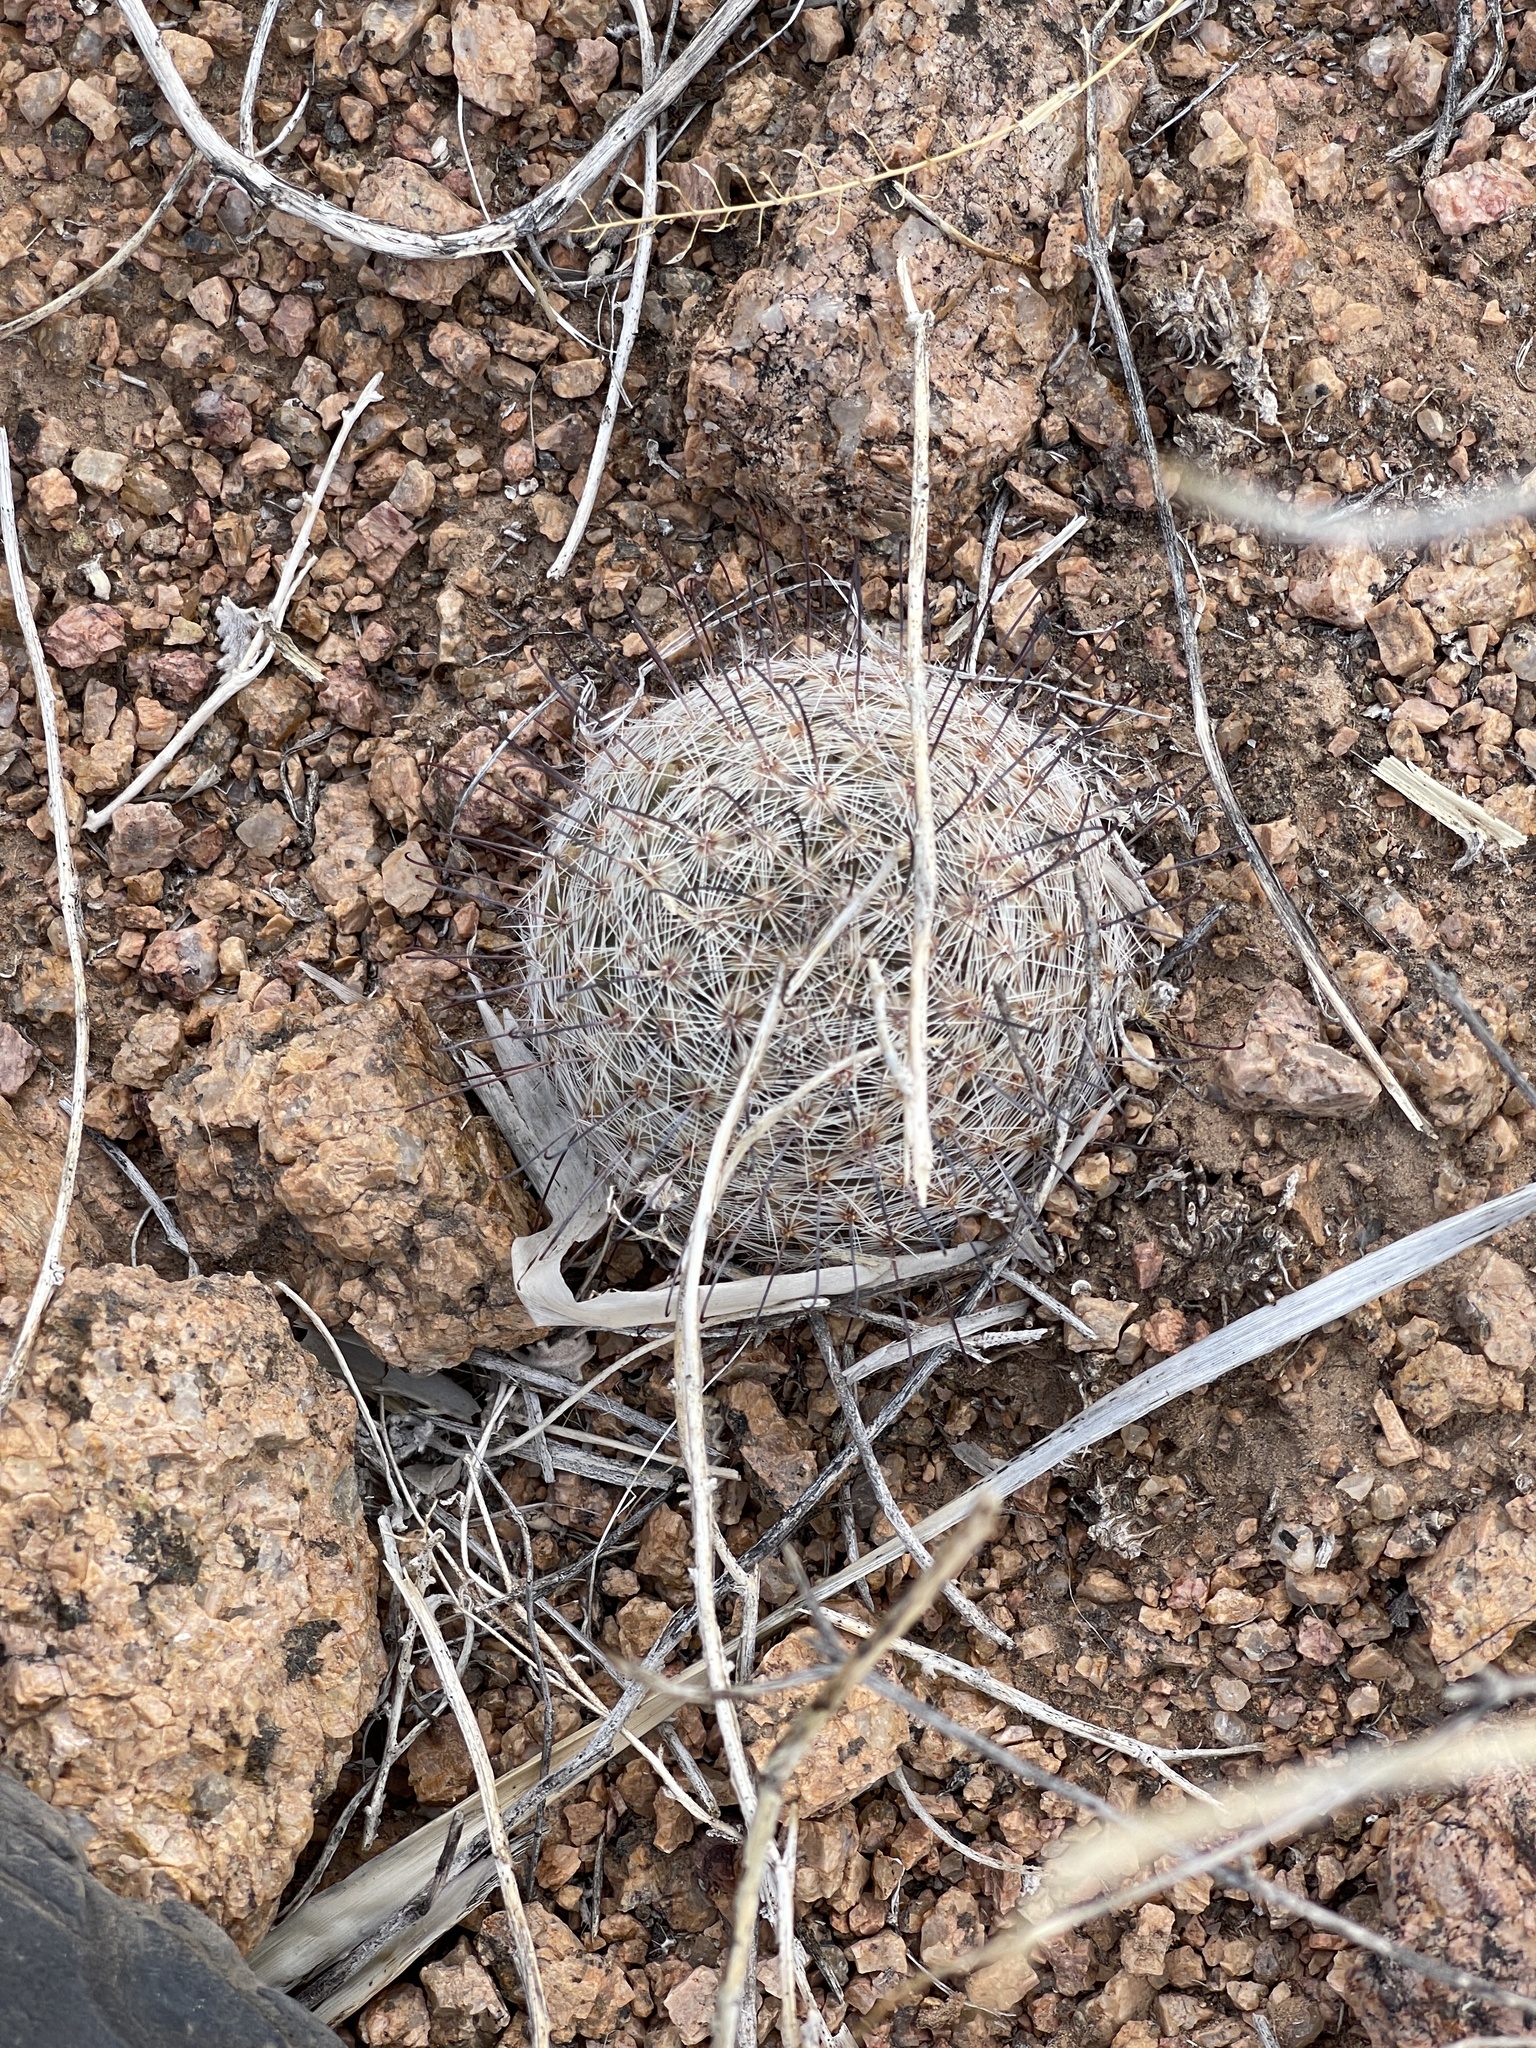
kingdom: Plantae
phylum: Tracheophyta
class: Magnoliopsida
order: Caryophyllales
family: Cactaceae
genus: Cochemiea
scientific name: Cochemiea grahamii
